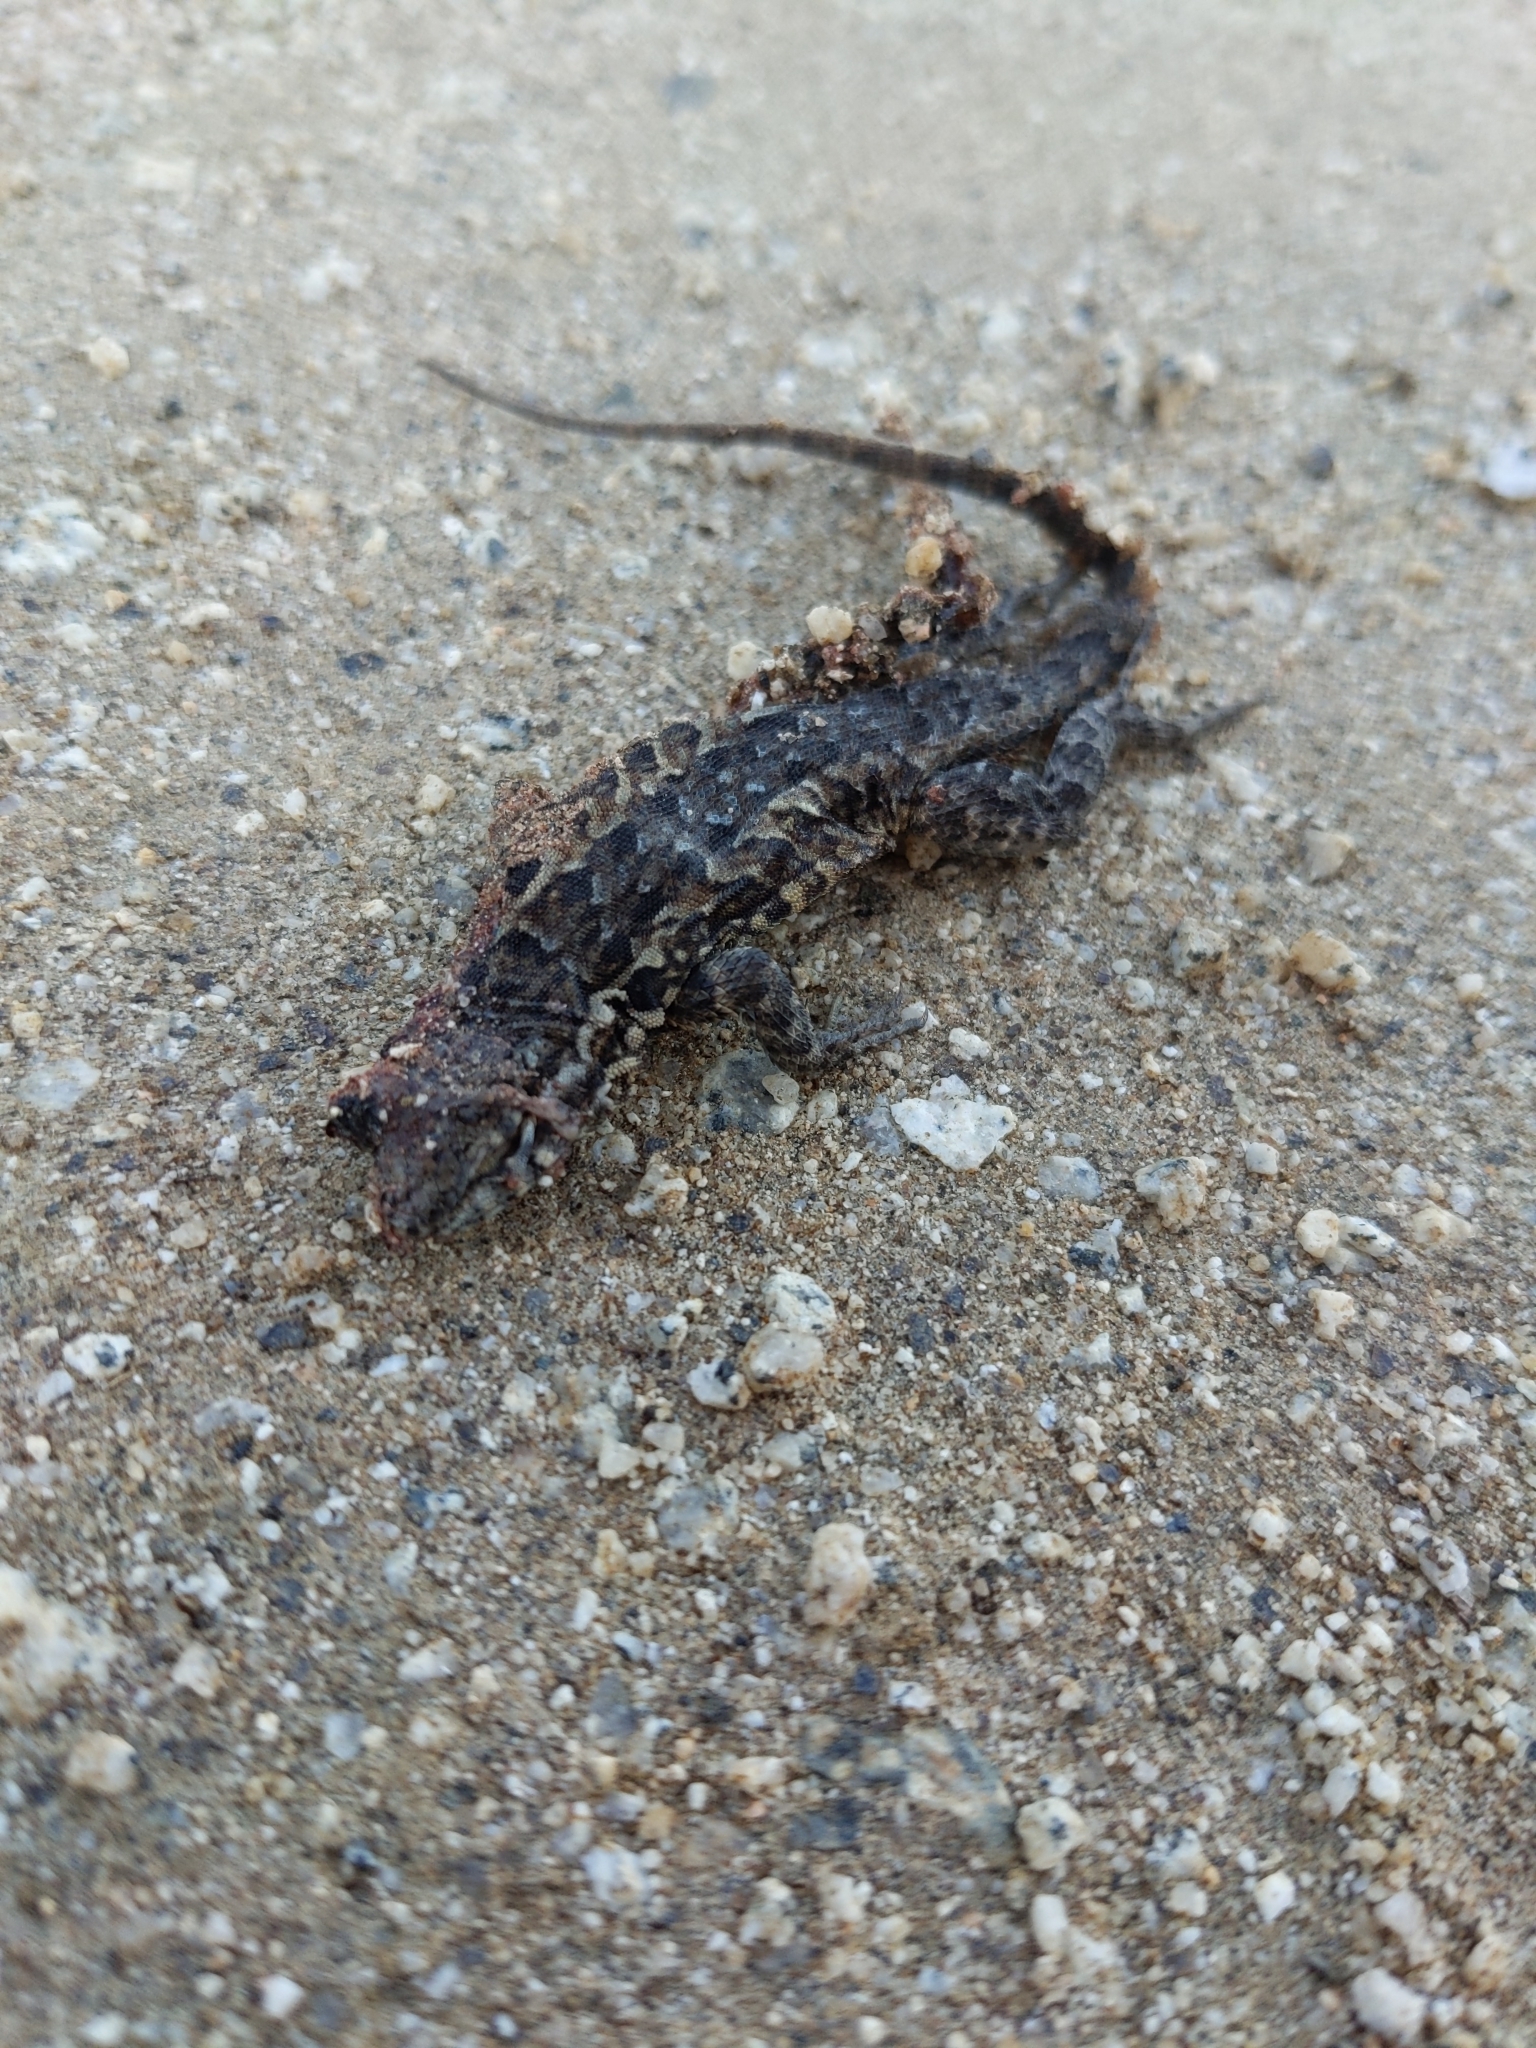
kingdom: Animalia
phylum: Chordata
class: Squamata
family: Phrynosomatidae
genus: Uta
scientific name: Uta stansburiana
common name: Side-blotched lizard
